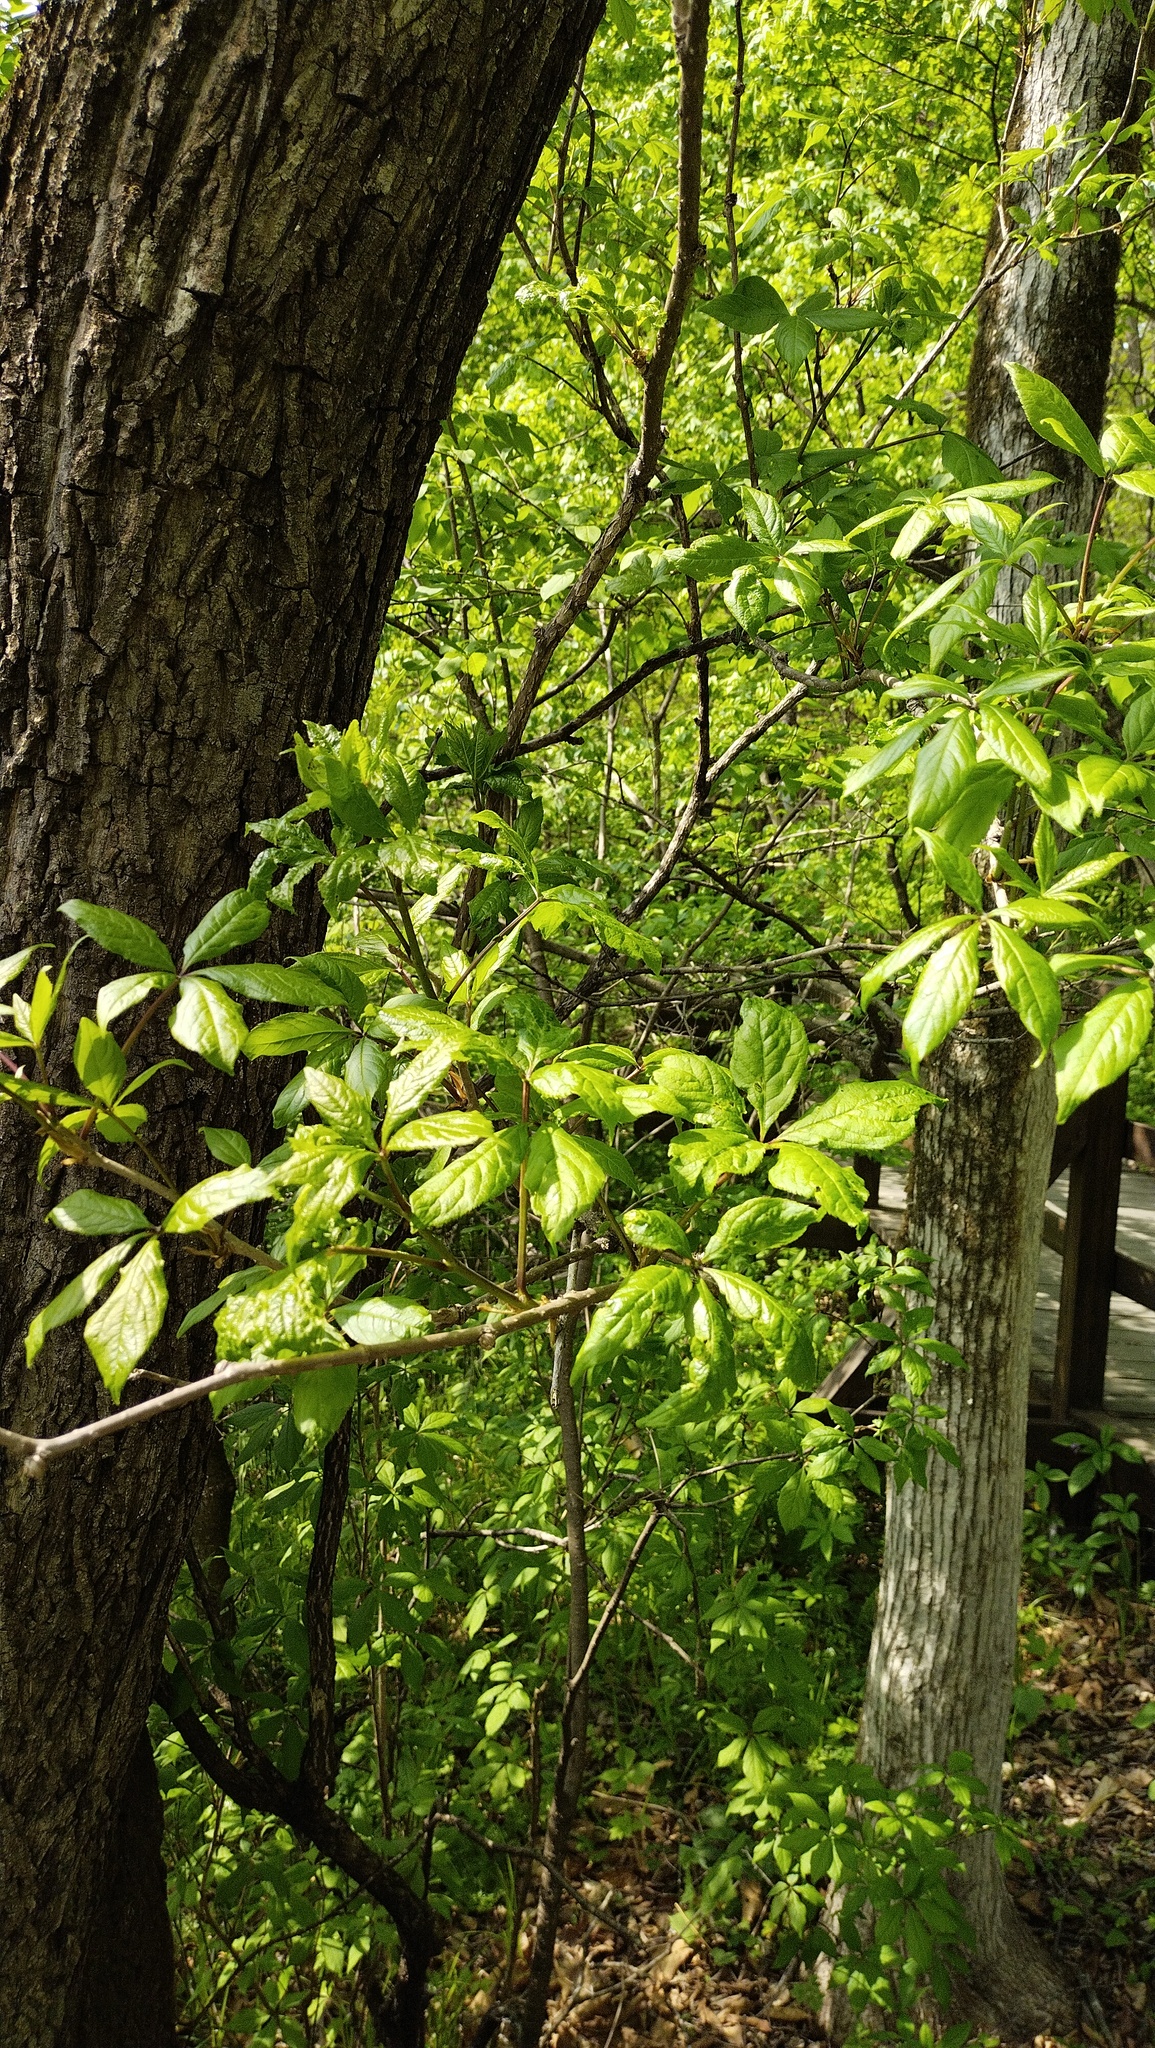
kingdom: Plantae
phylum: Tracheophyta
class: Magnoliopsida
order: Apiales
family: Araliaceae
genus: Eleutherococcus
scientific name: Eleutherococcus sessiliflorus
